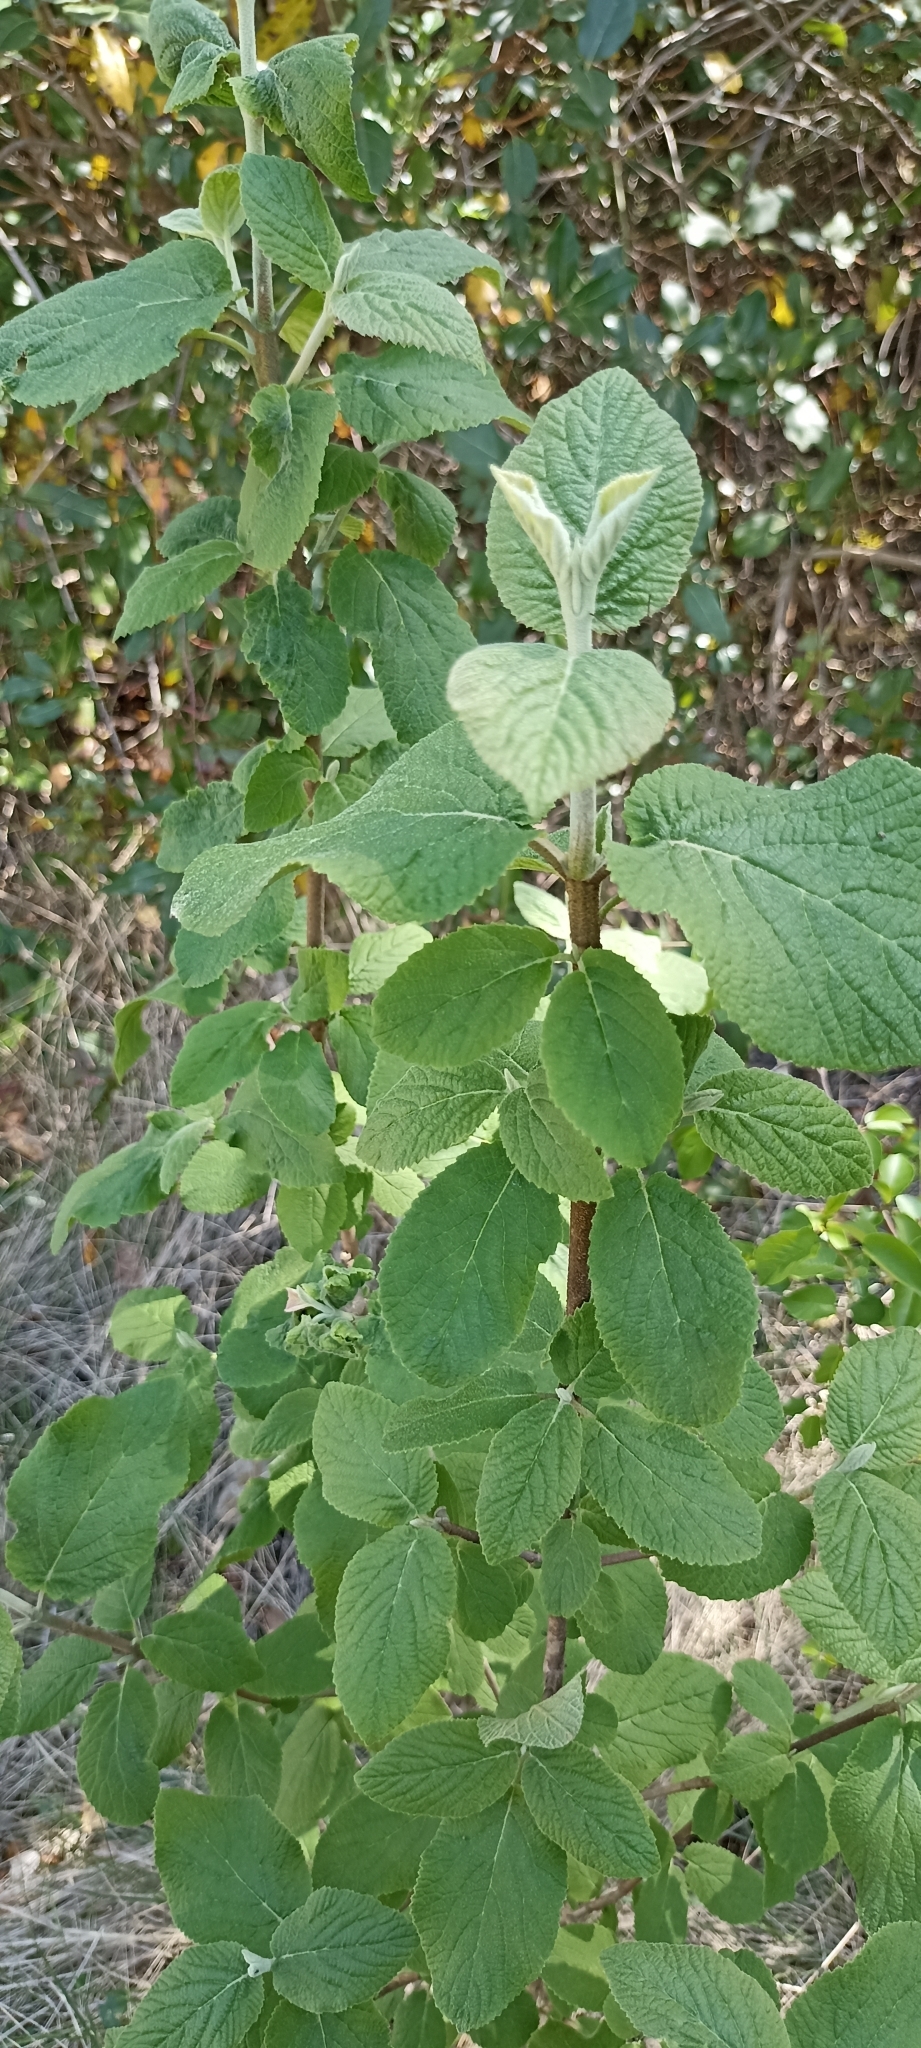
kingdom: Plantae
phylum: Tracheophyta
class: Magnoliopsida
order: Dipsacales
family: Viburnaceae
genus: Viburnum
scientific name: Viburnum lantana
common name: Wayfaring tree
